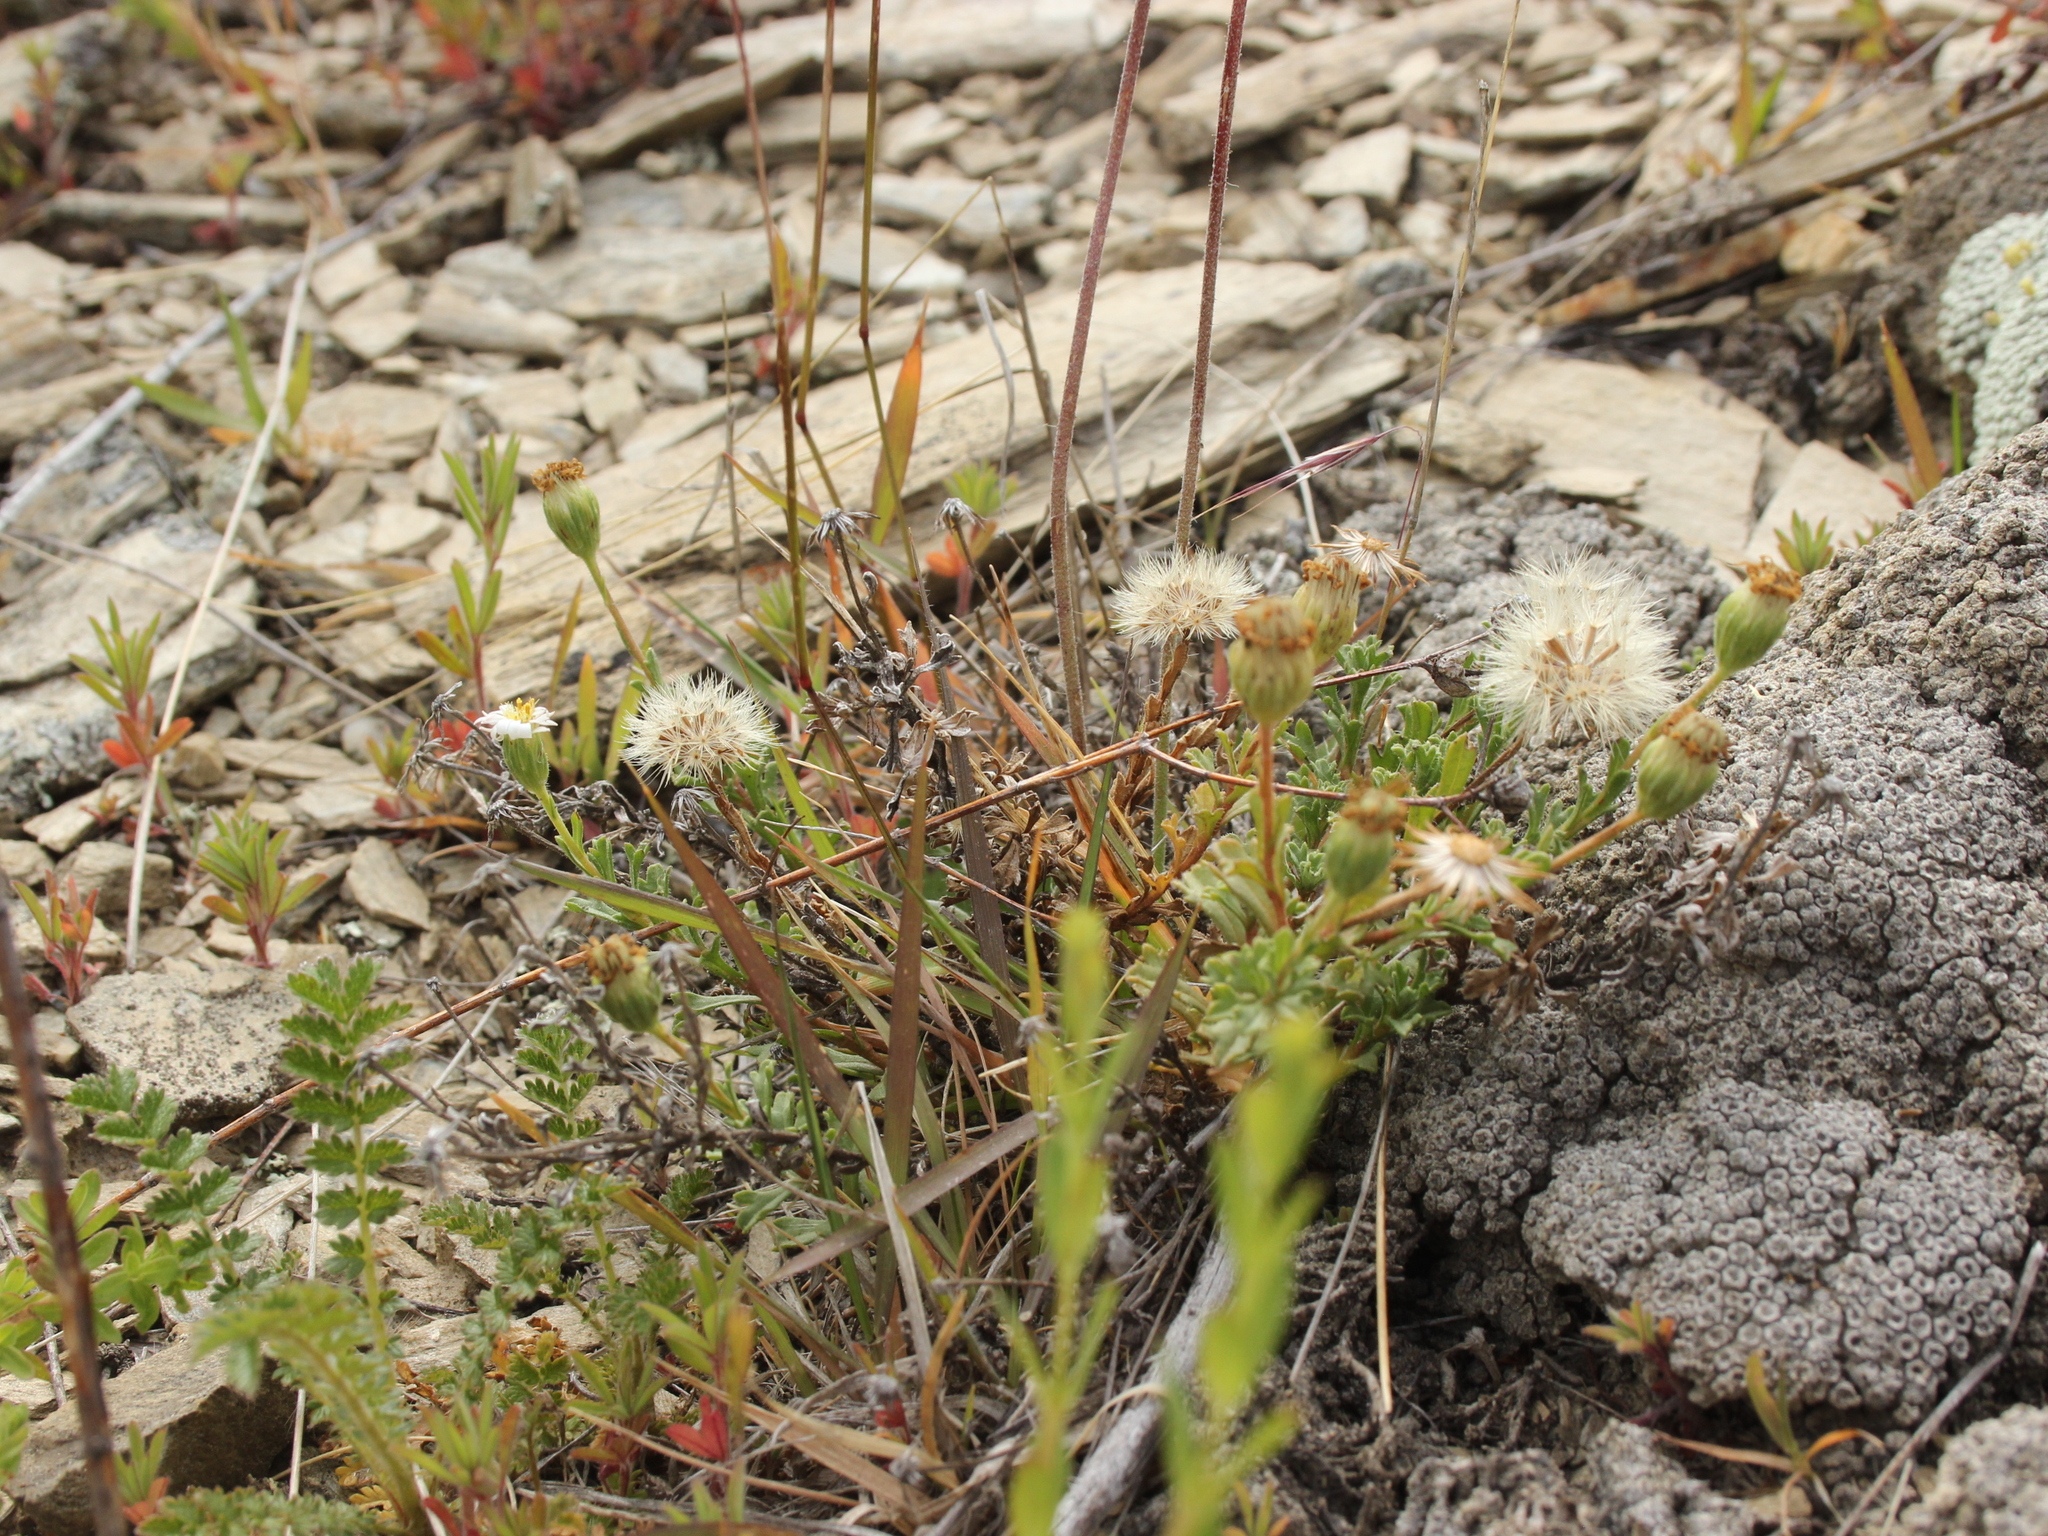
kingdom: Plantae
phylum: Tracheophyta
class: Magnoliopsida
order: Asterales
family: Asteraceae
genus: Vittadinia
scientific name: Vittadinia australis
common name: White fuzzweed
